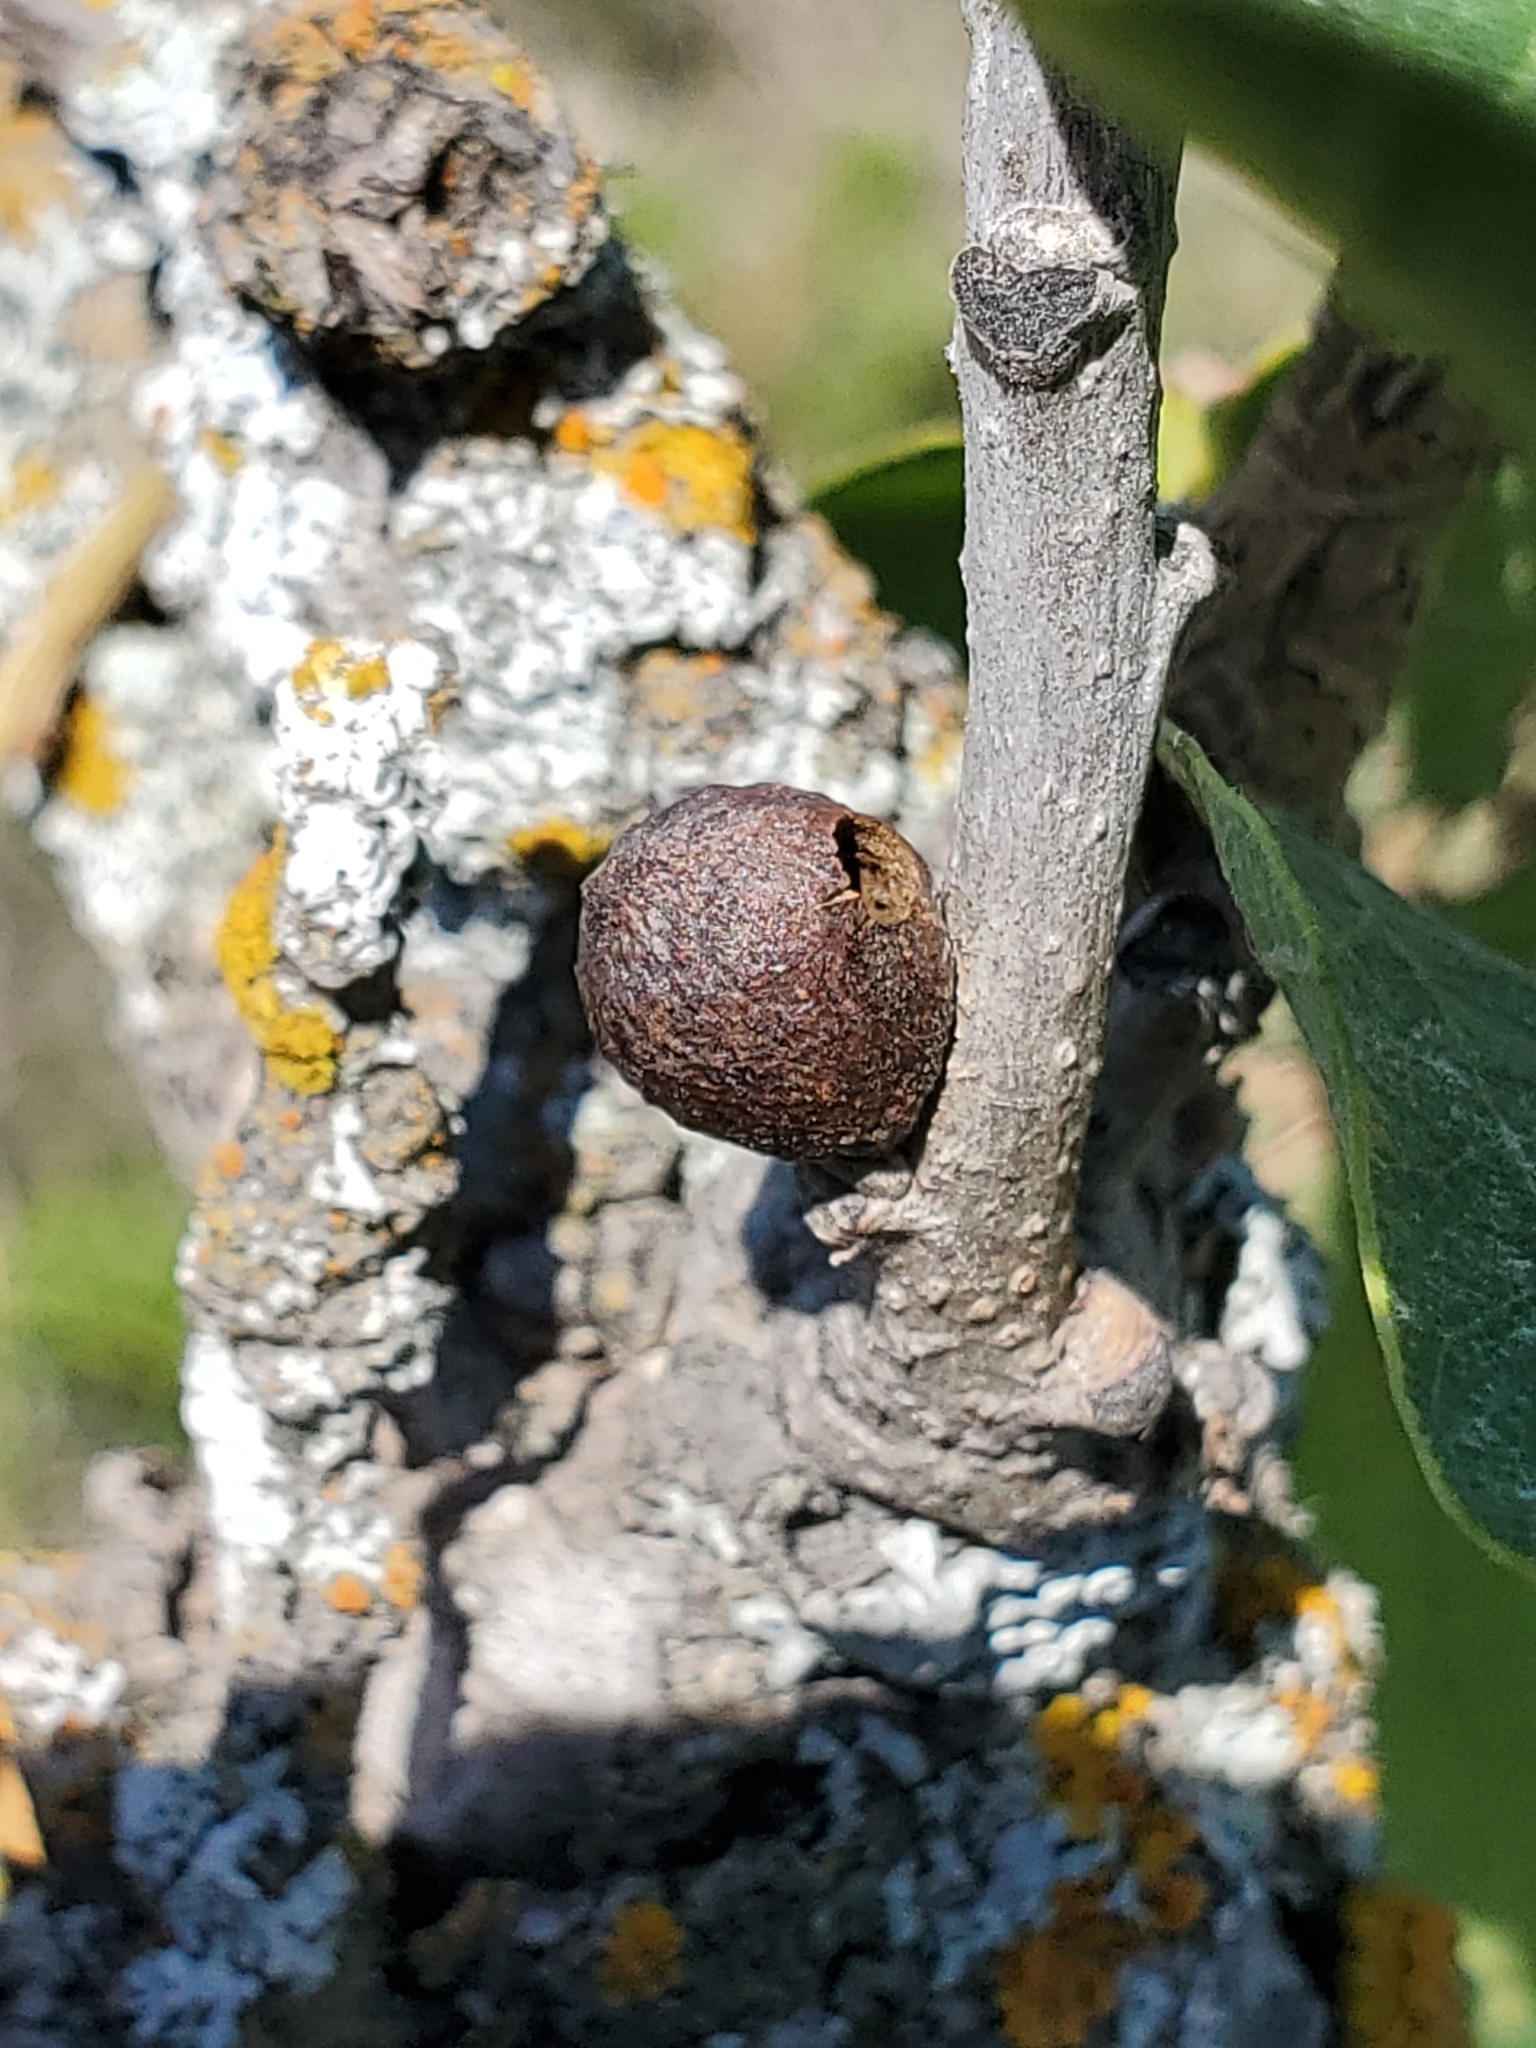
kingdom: Animalia
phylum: Arthropoda
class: Insecta
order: Hymenoptera
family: Cynipidae
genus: Disholcaspis
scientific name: Disholcaspis
